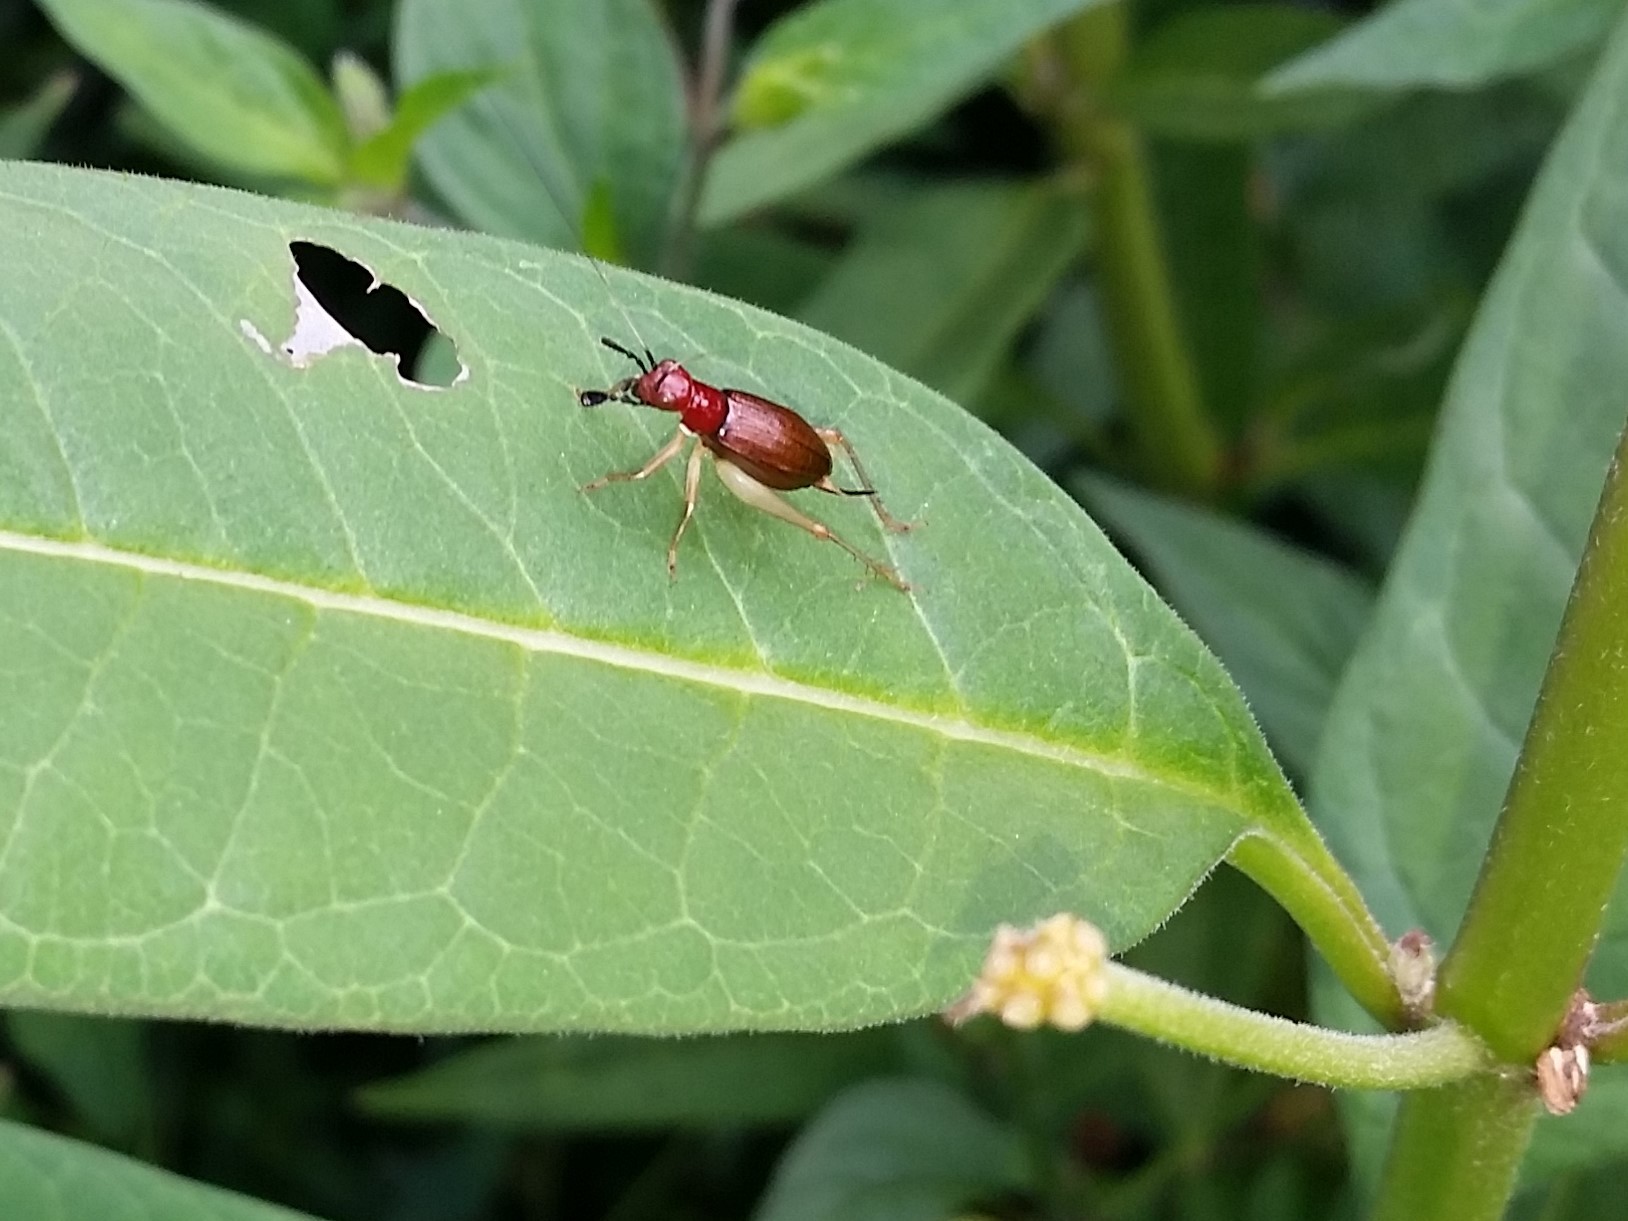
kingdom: Animalia
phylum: Arthropoda
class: Insecta
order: Orthoptera
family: Trigonidiidae
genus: Phyllopalpus
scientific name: Phyllopalpus pulchellus
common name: Handsome trig
